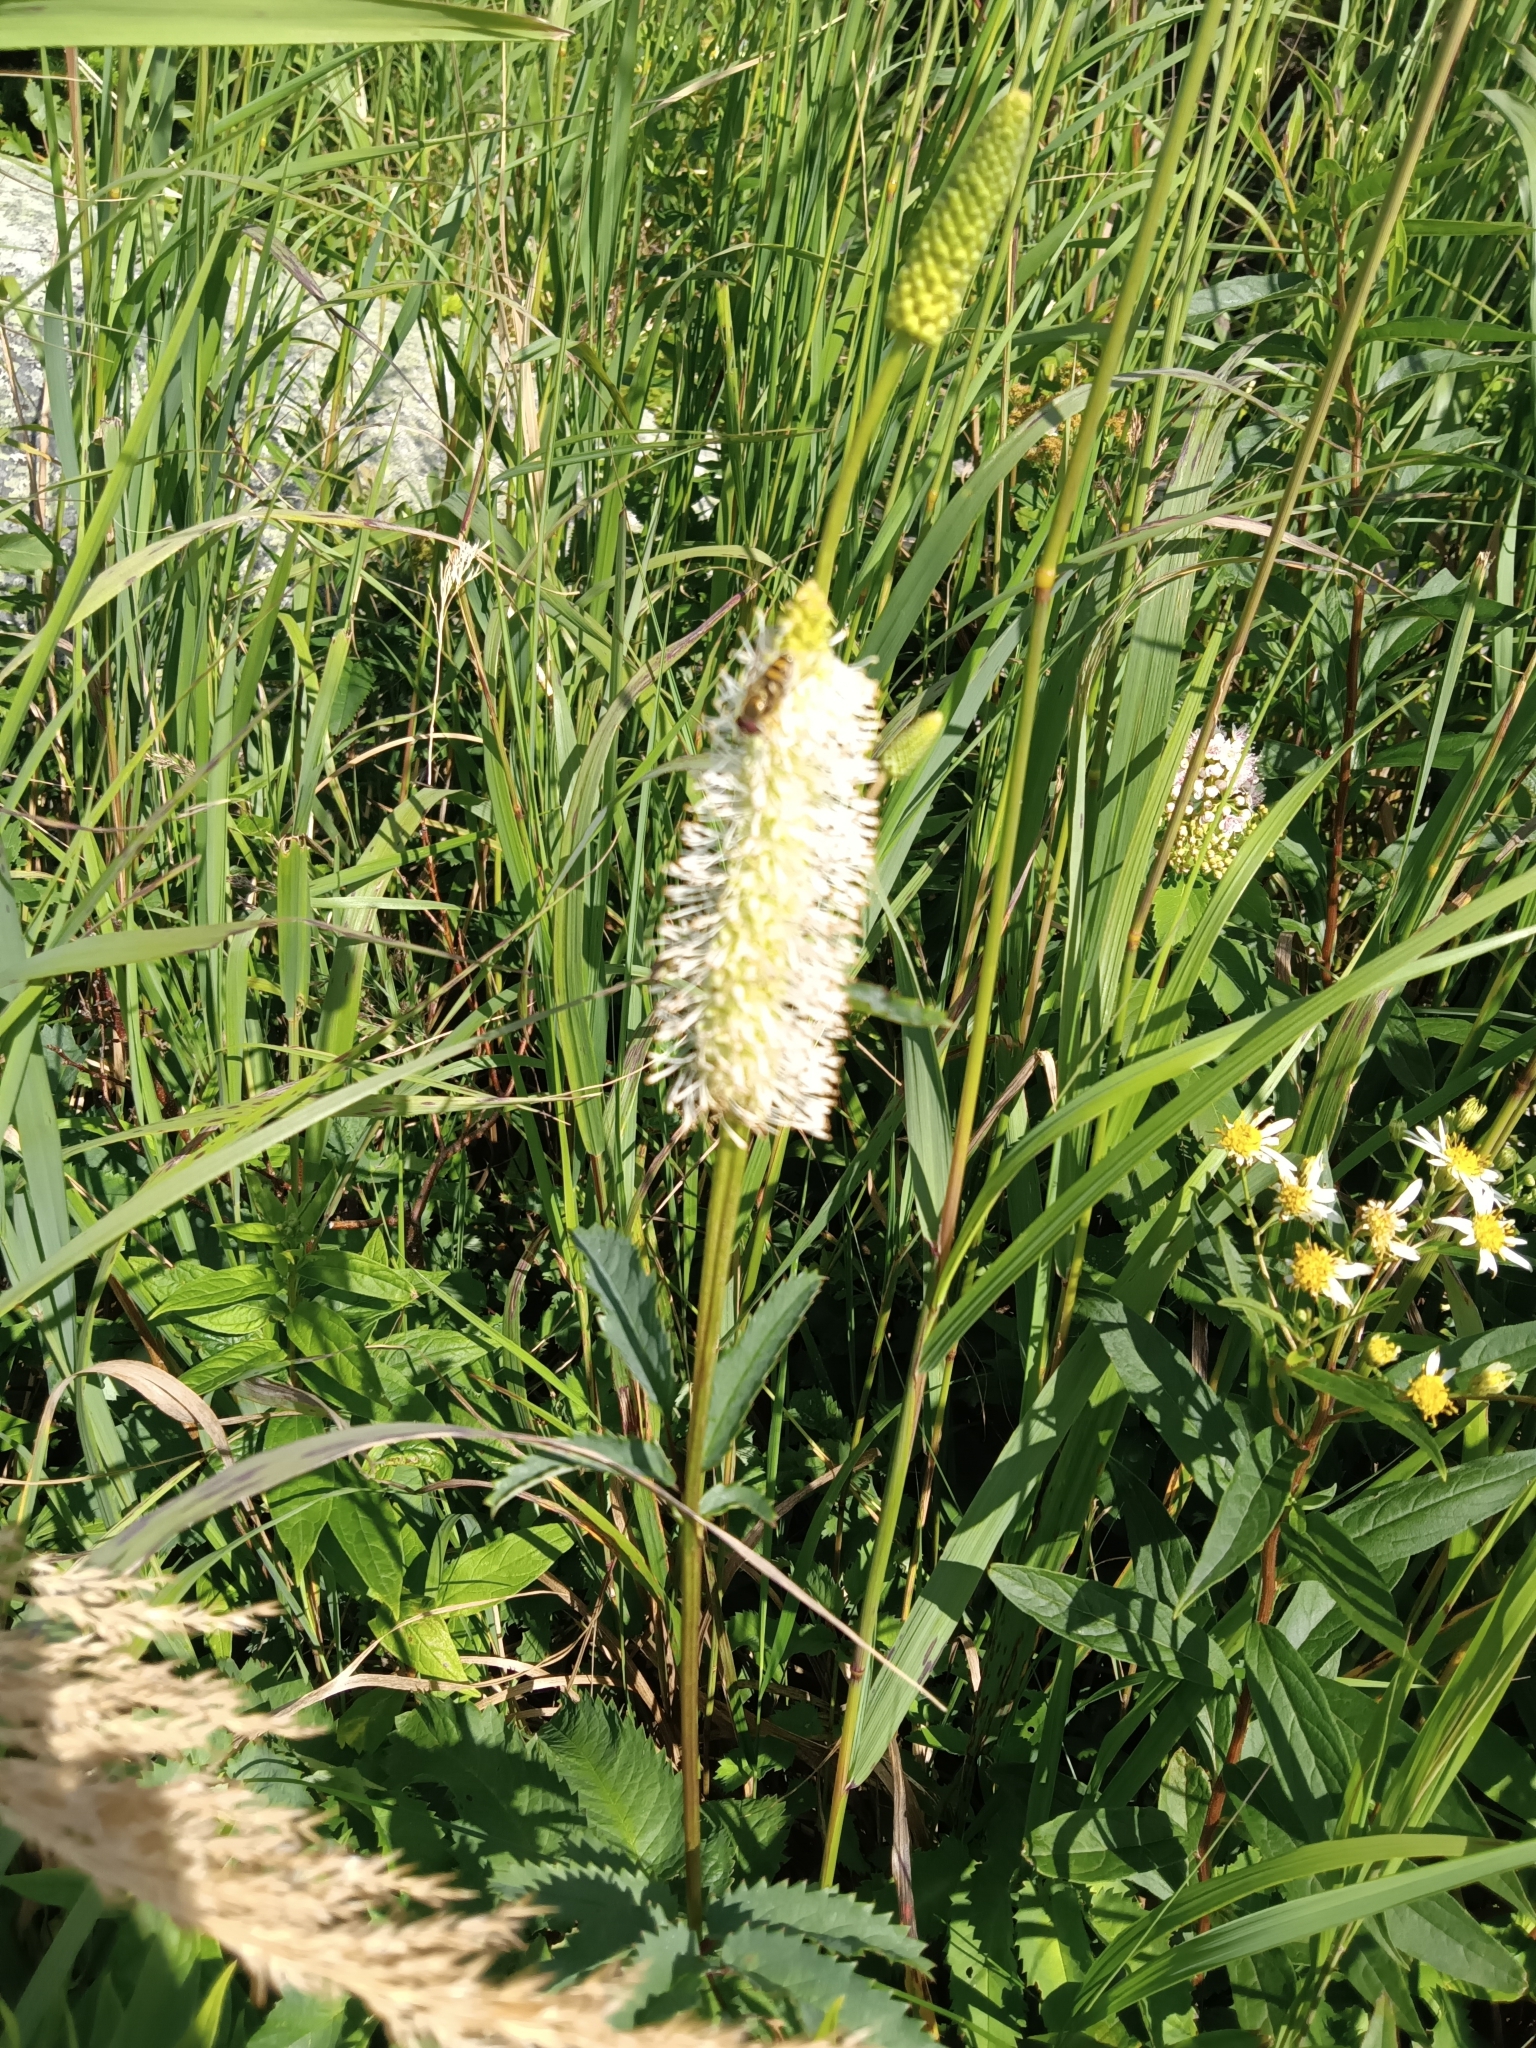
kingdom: Plantae
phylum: Tracheophyta
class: Magnoliopsida
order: Rosales
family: Rosaceae
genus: Sanguisorba
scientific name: Sanguisorba canadensis
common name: White burnet
